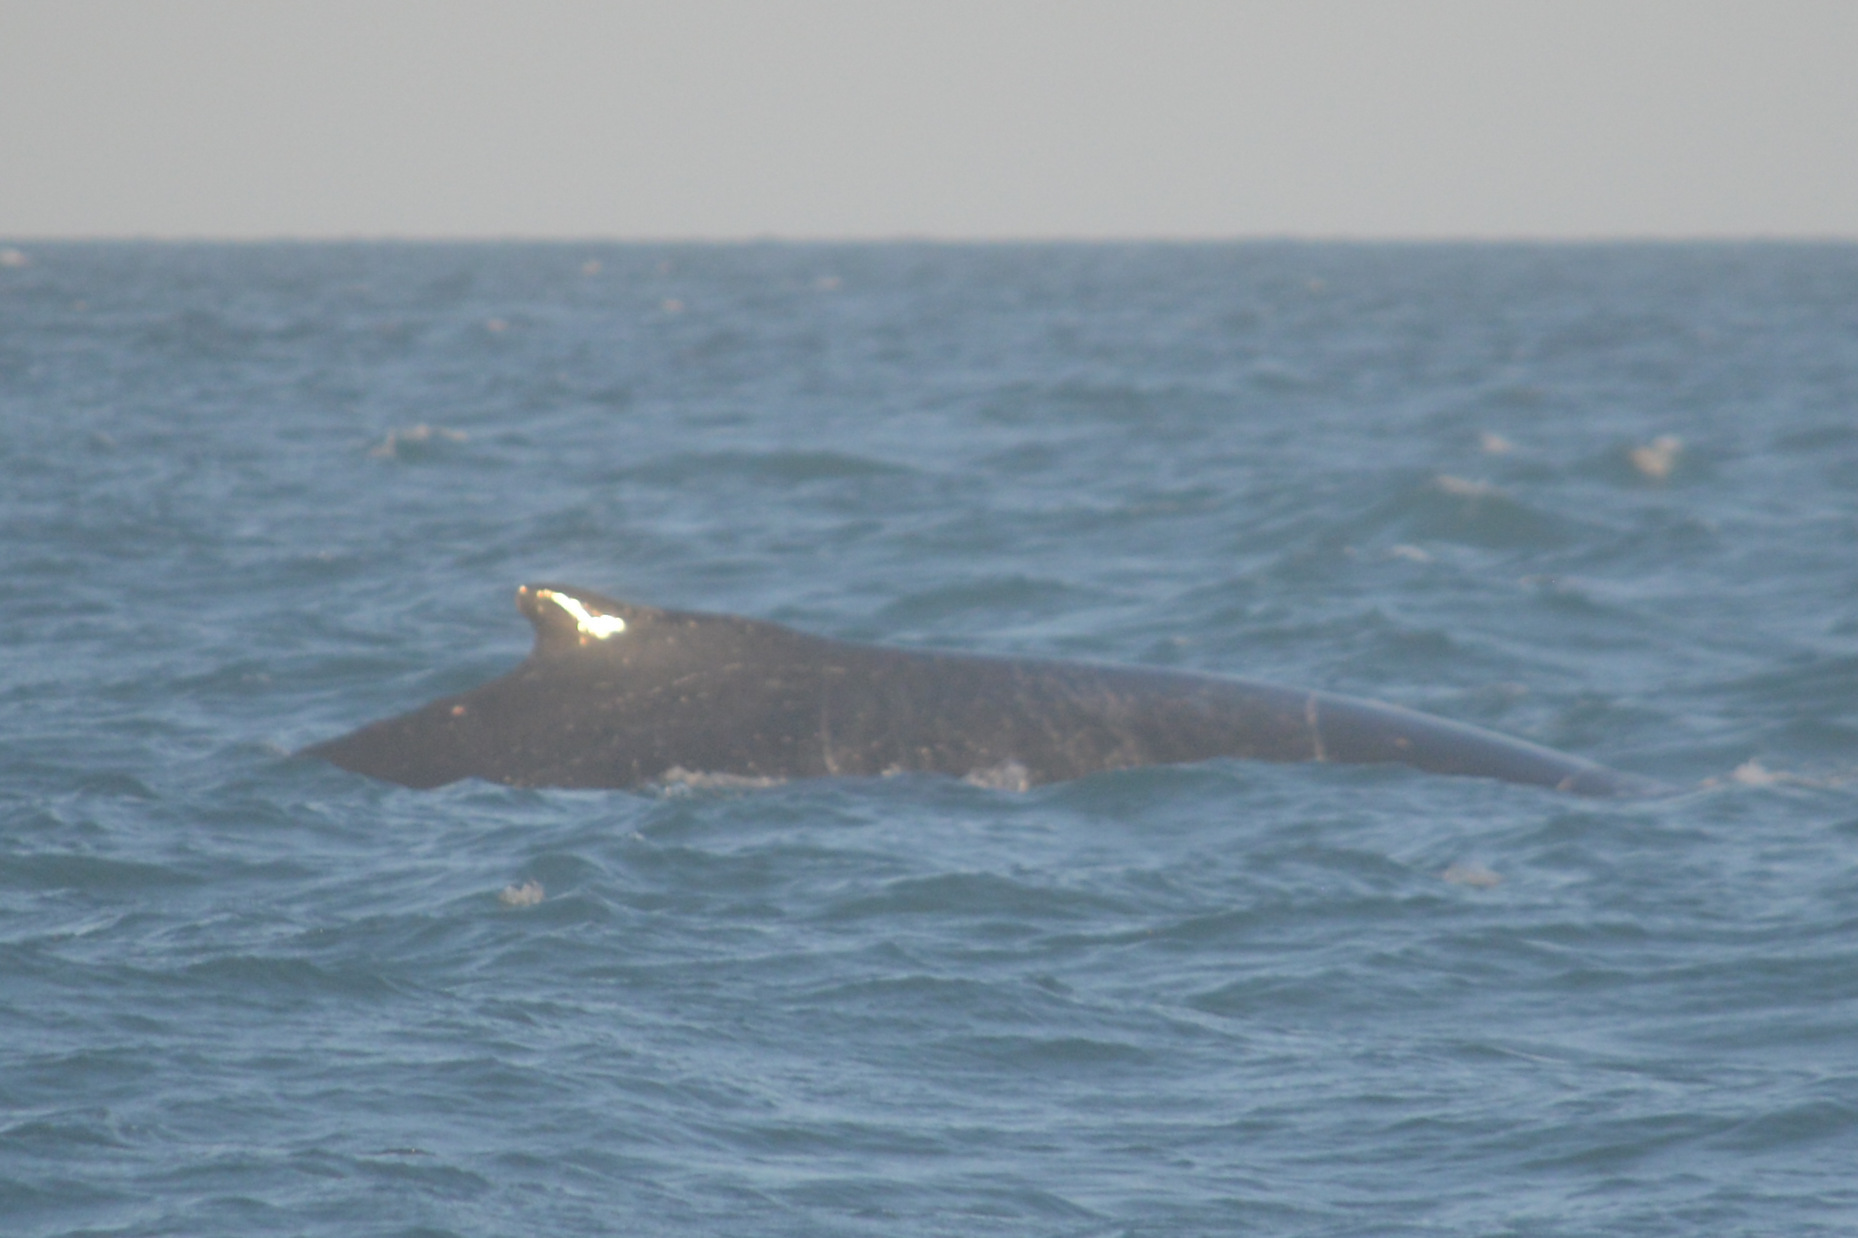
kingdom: Animalia
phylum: Chordata
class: Mammalia
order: Cetacea
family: Balaenopteridae
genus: Megaptera
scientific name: Megaptera novaeangliae
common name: Humpback whale
